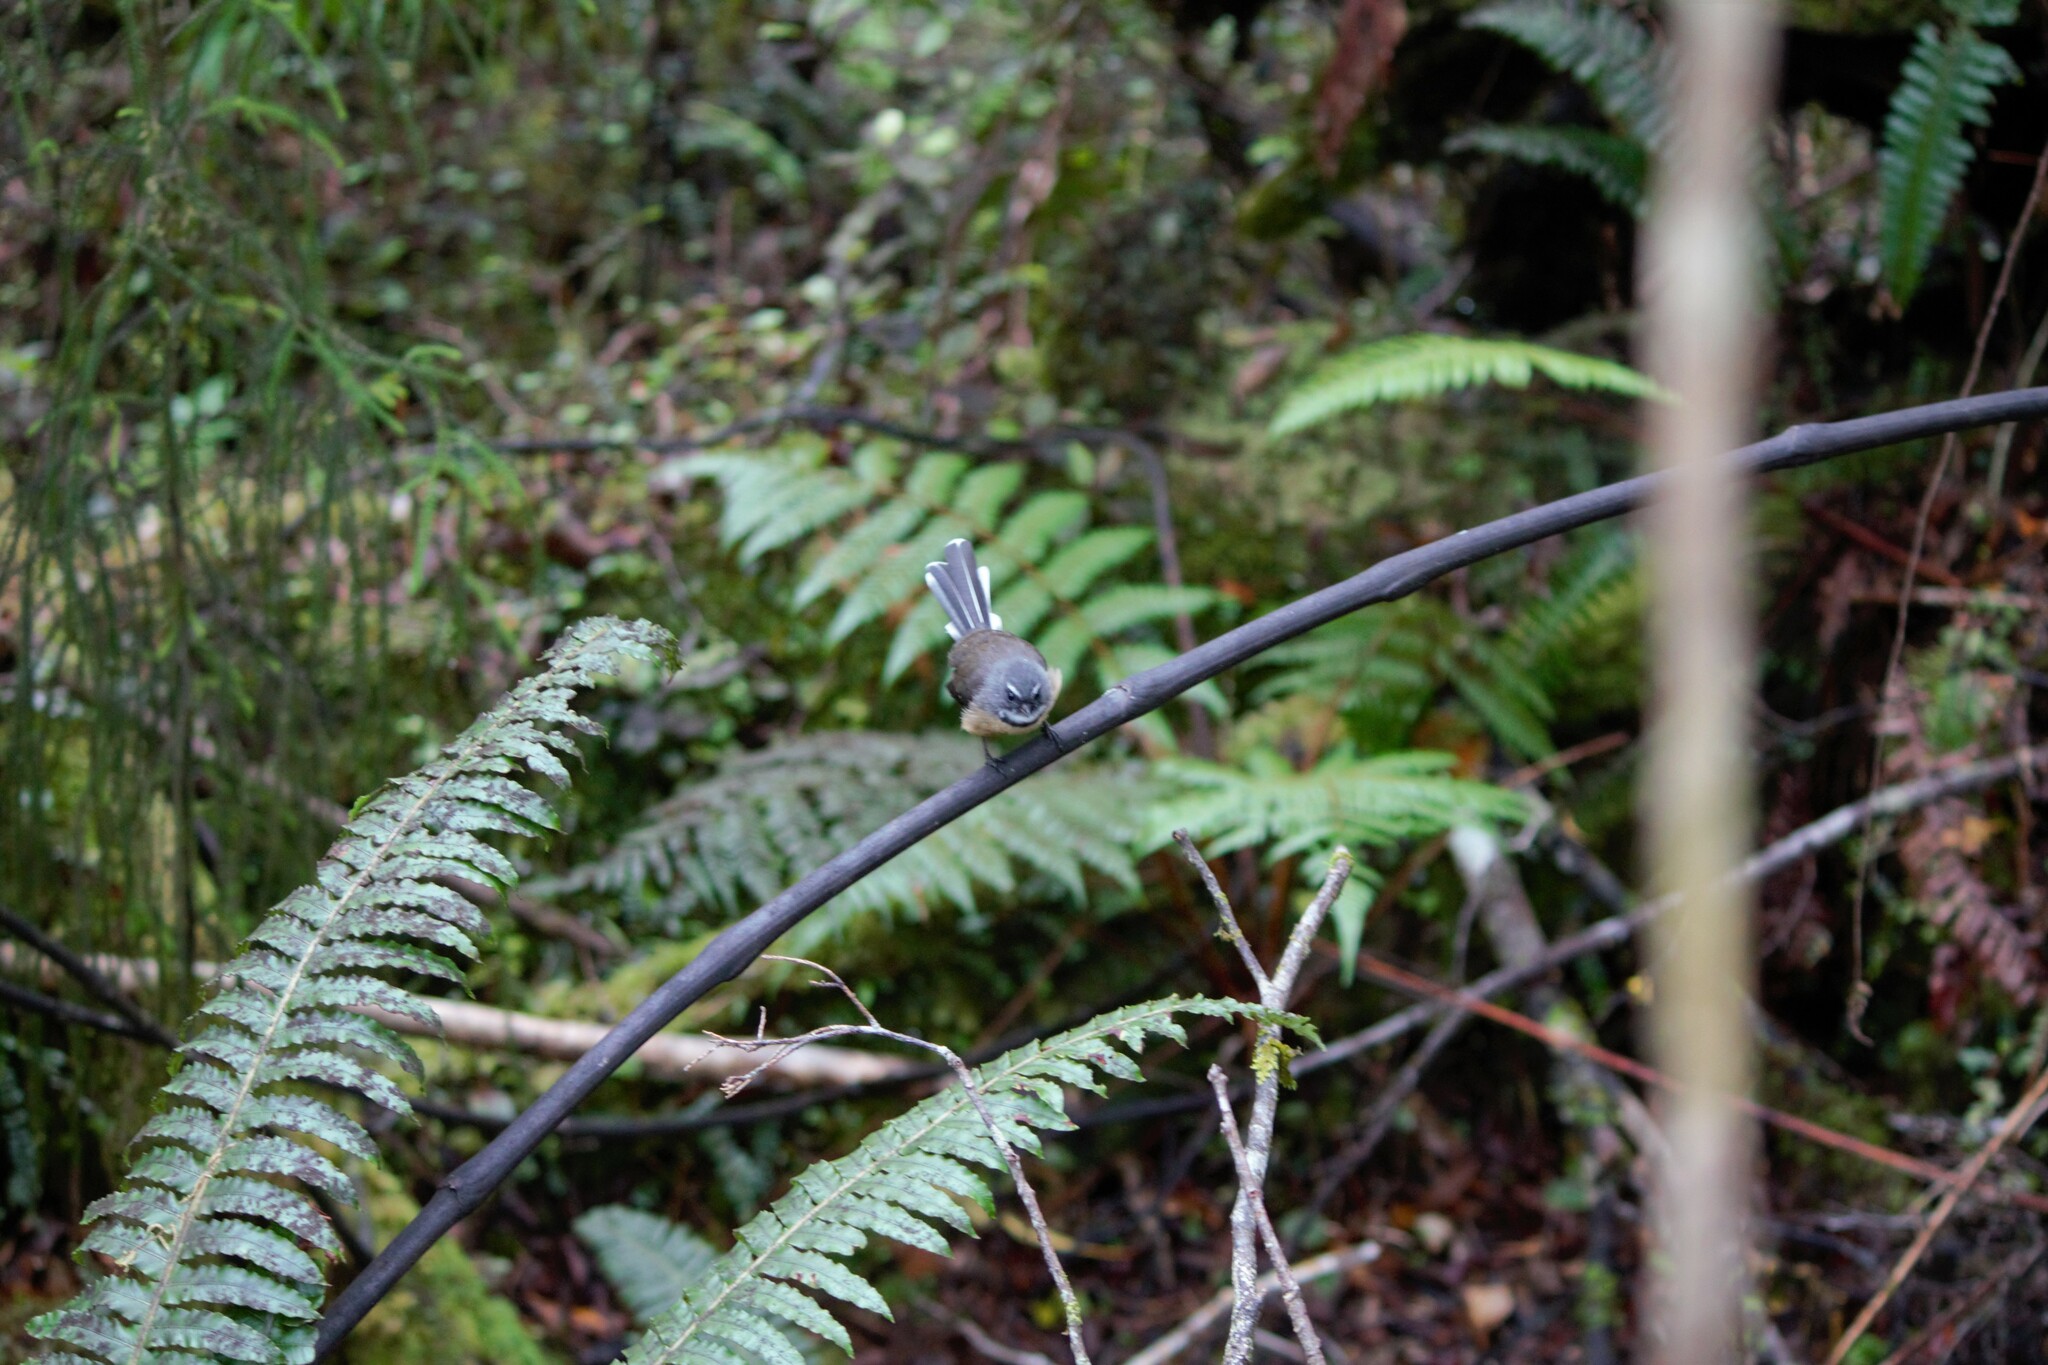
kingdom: Animalia
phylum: Chordata
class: Aves
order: Passeriformes
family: Rhipiduridae
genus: Rhipidura
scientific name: Rhipidura fuliginosa
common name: New zealand fantail
